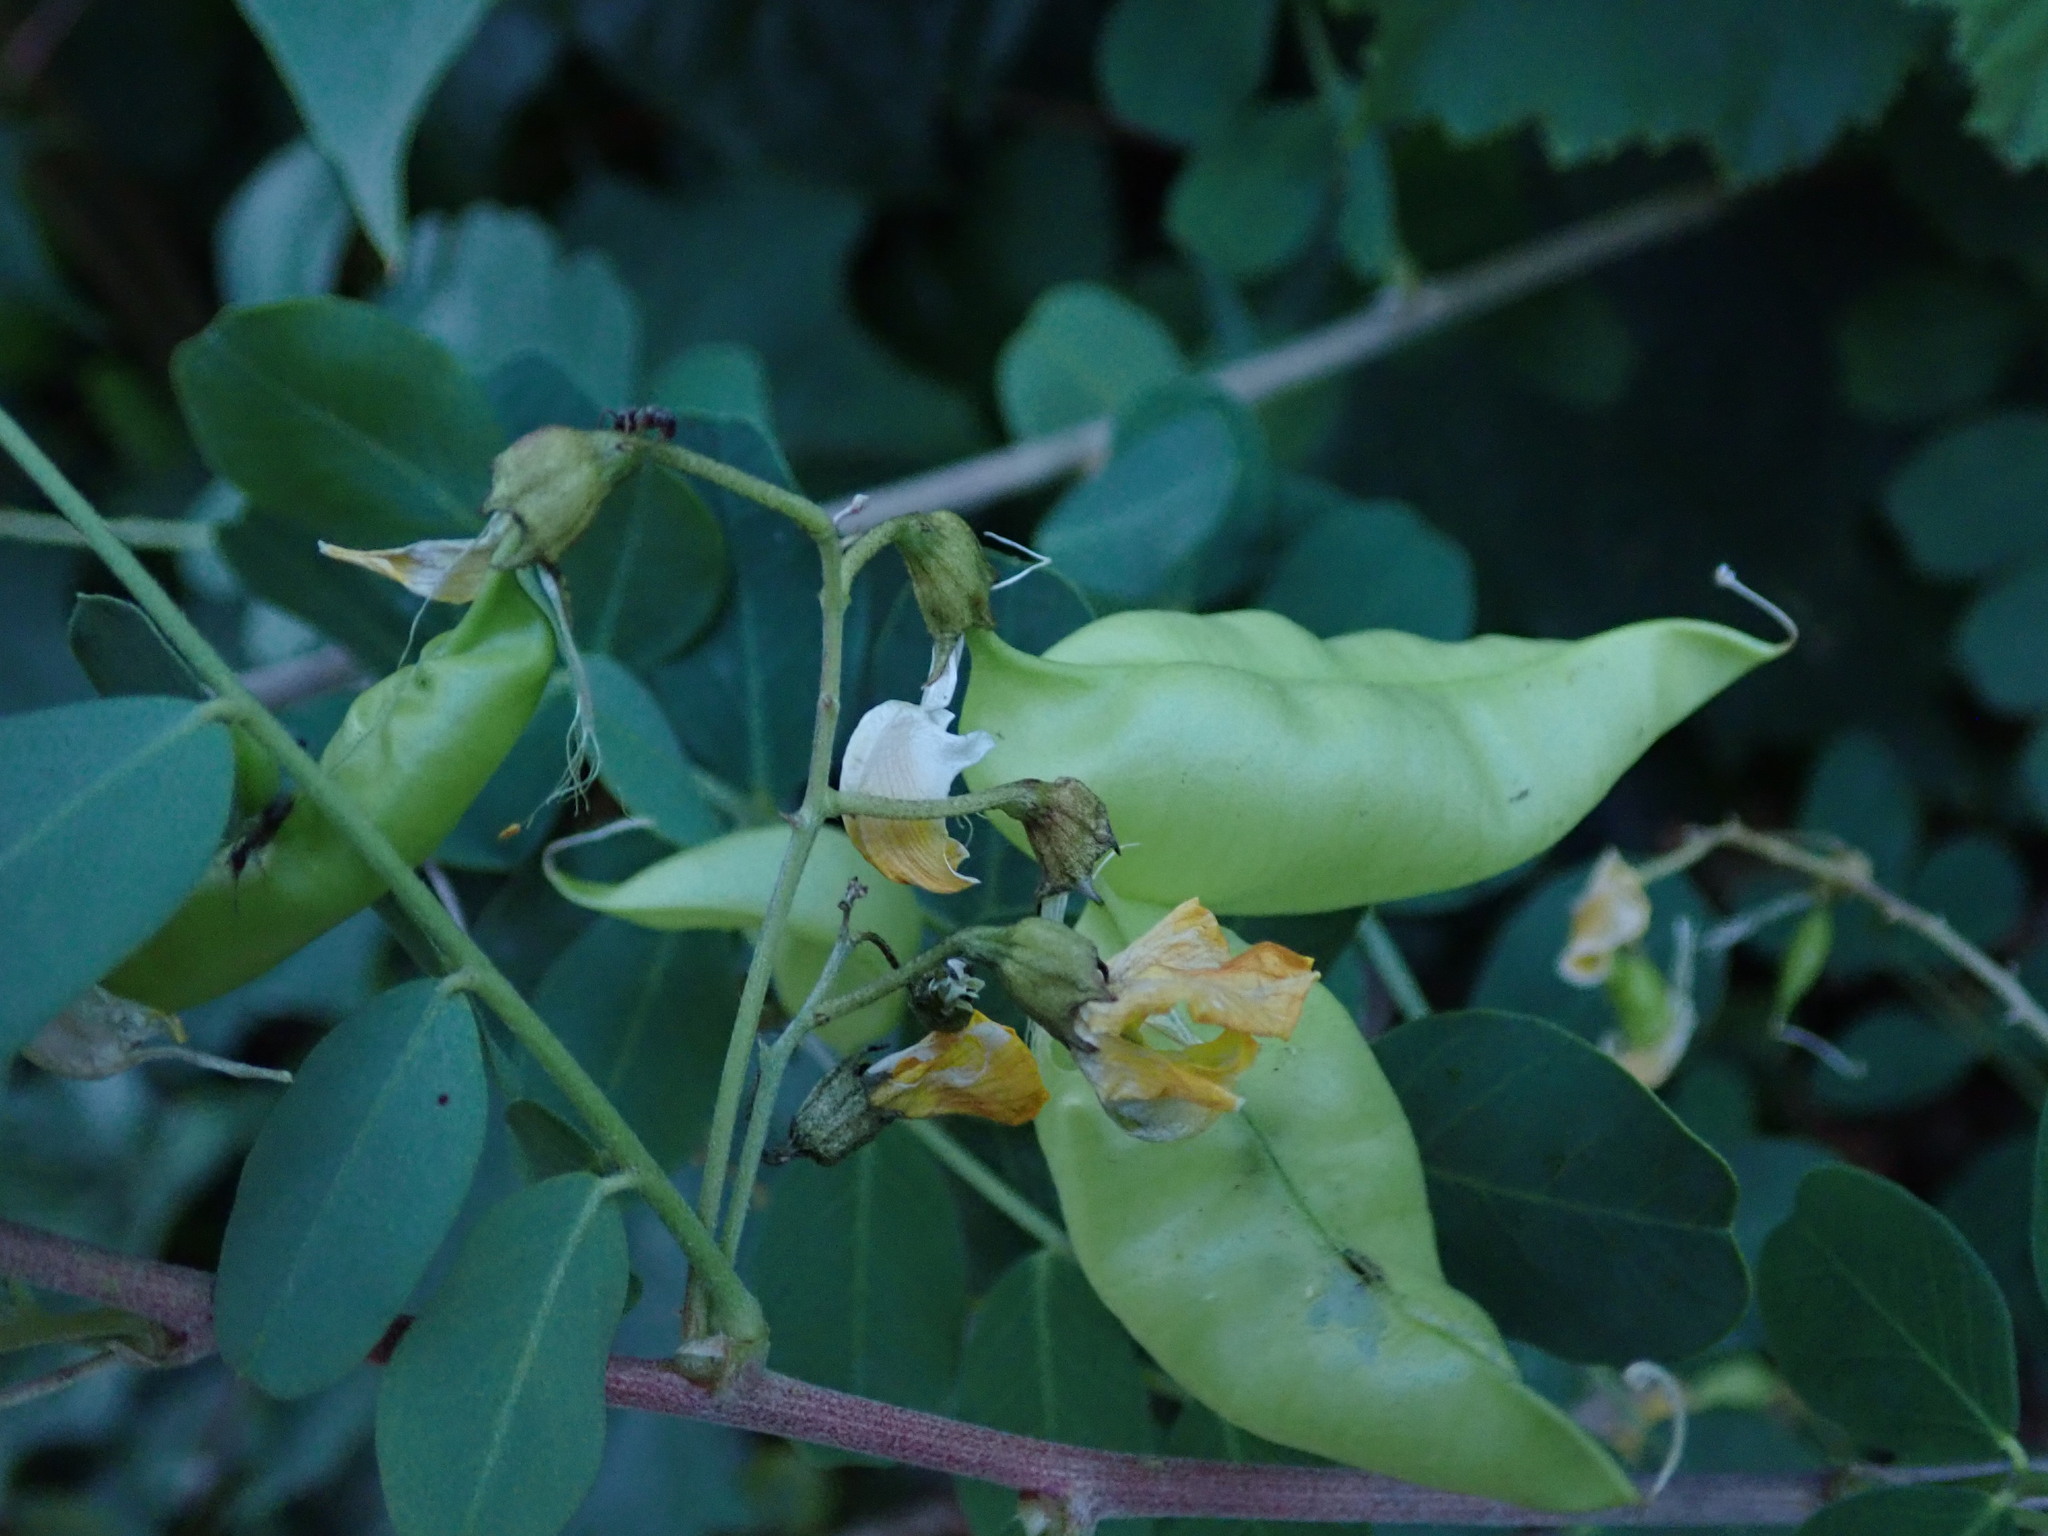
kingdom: Plantae
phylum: Tracheophyta
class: Magnoliopsida
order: Fabales
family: Fabaceae
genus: Colutea
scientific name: Colutea arborescens
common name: Bladder-senna
